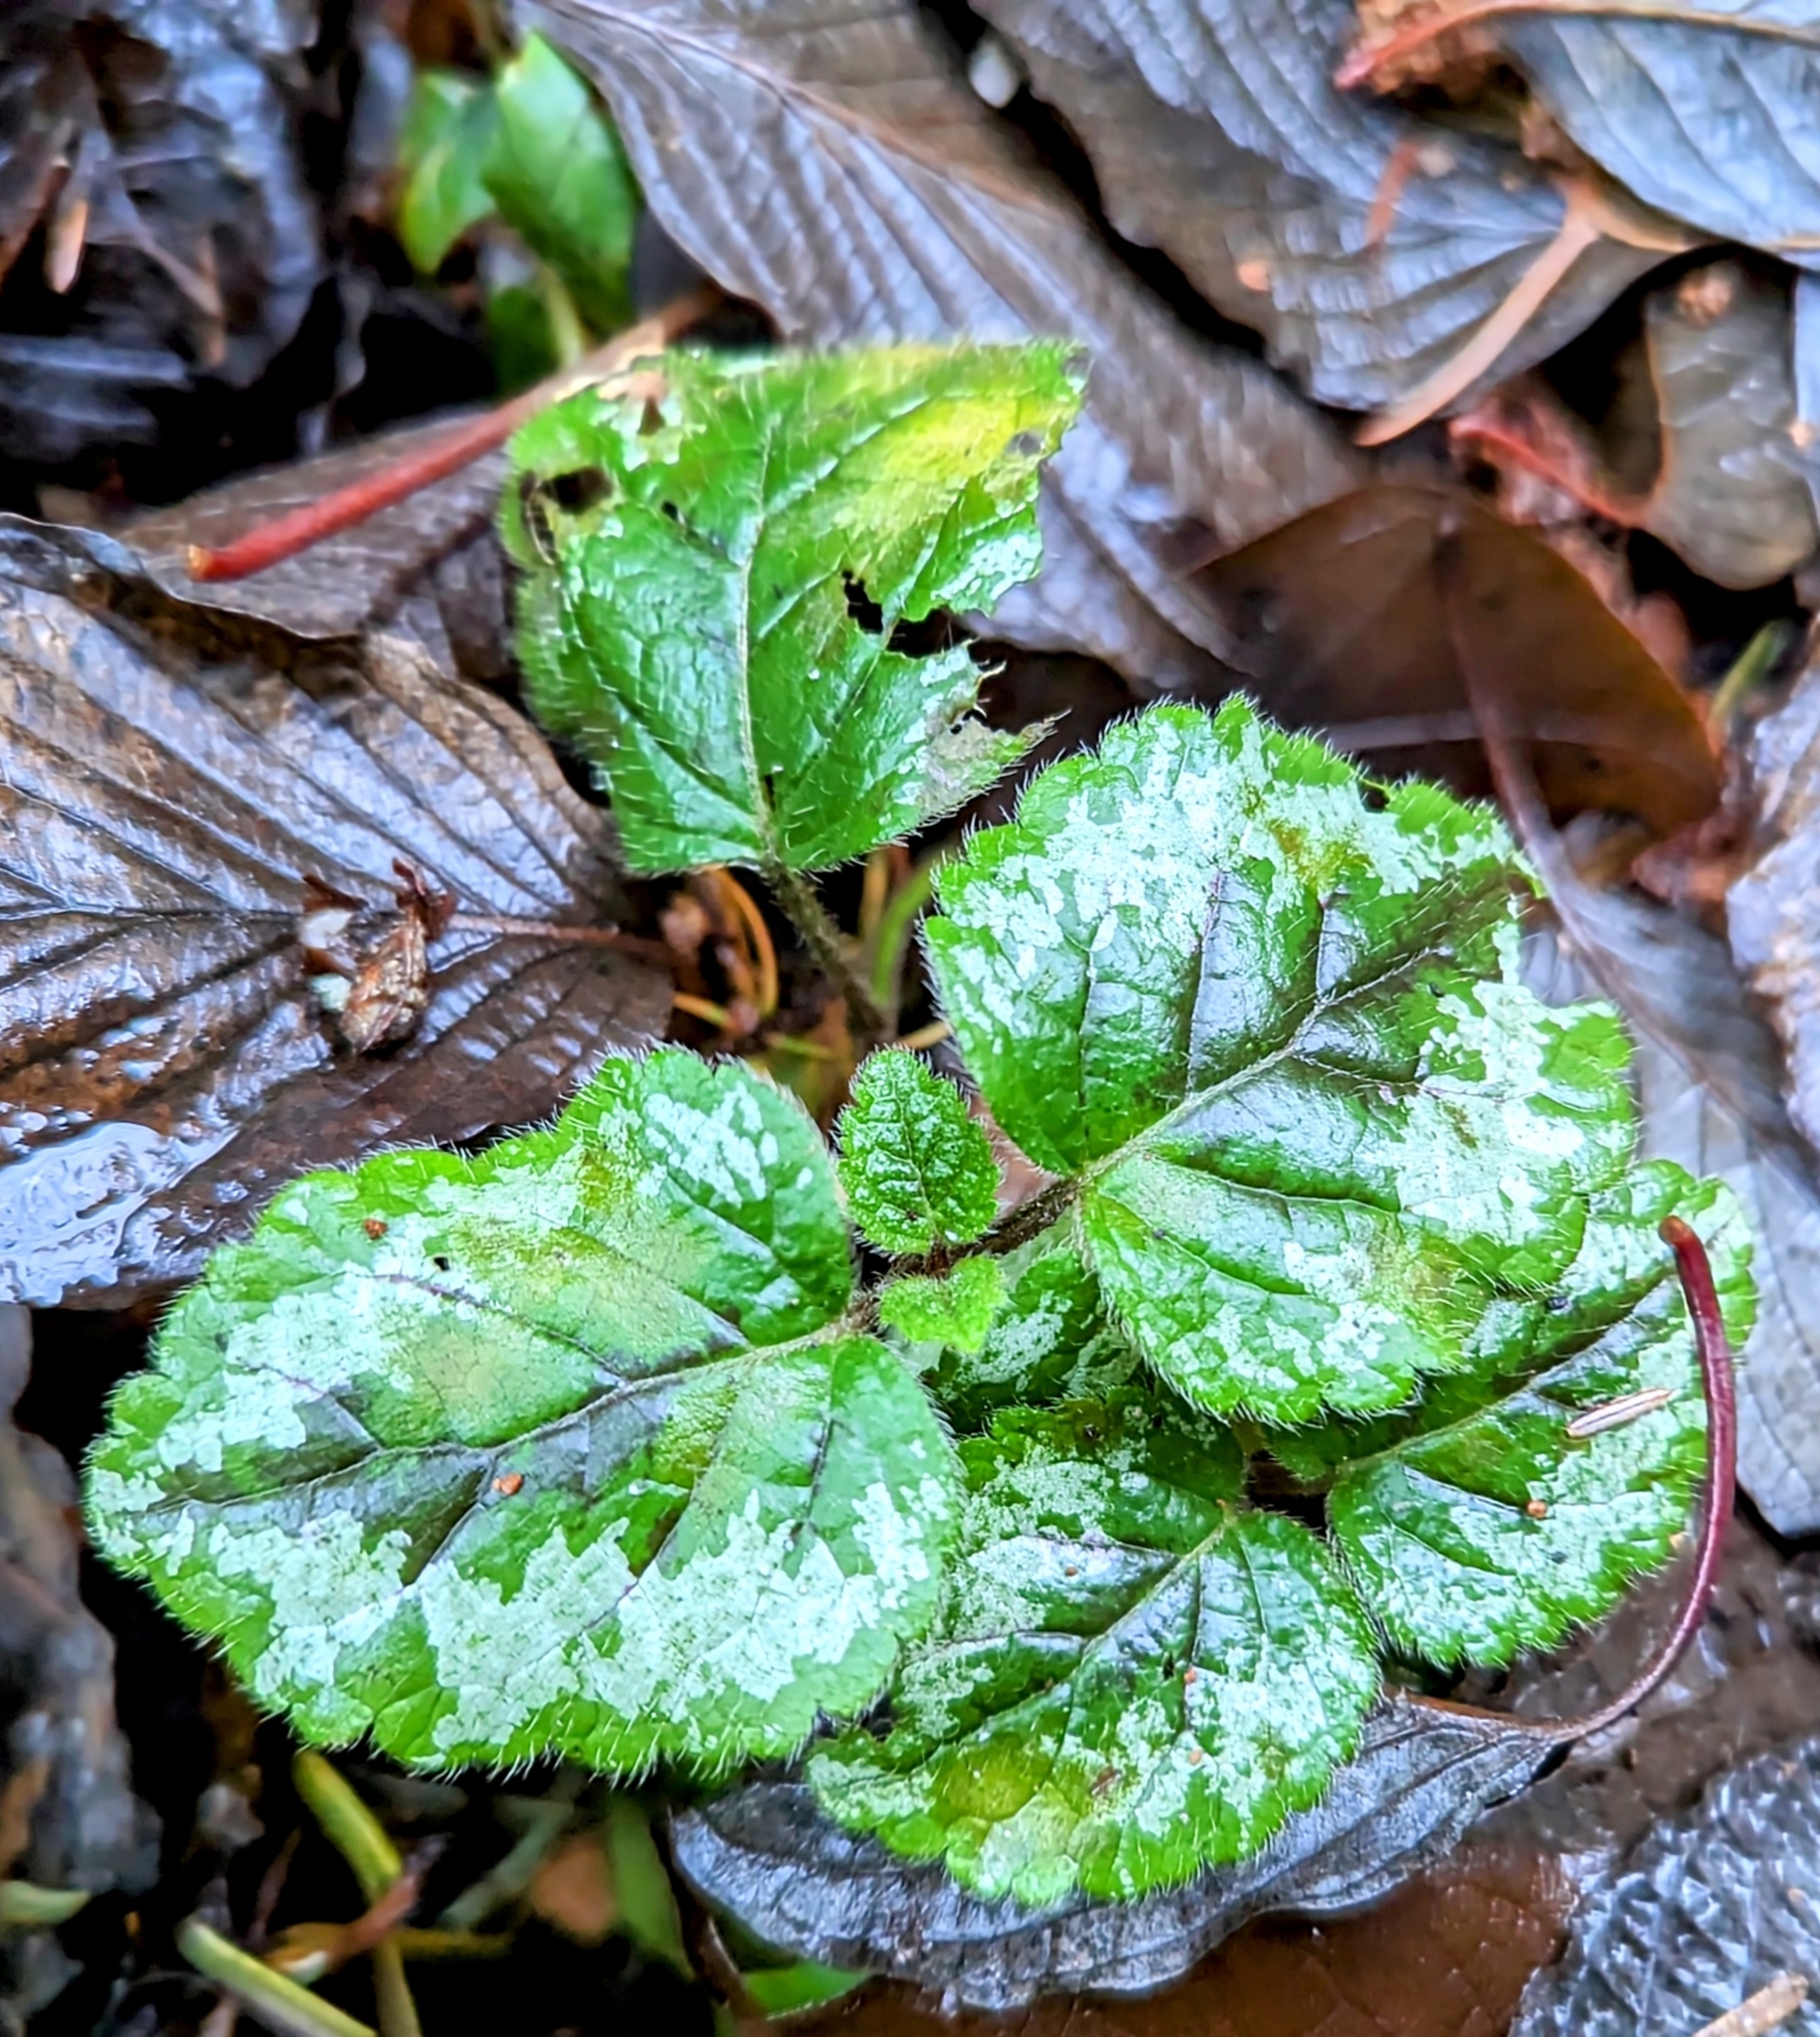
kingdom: Plantae
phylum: Tracheophyta
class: Magnoliopsida
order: Lamiales
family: Lamiaceae
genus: Lamium
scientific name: Lamium galeobdolon
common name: Yellow archangel
